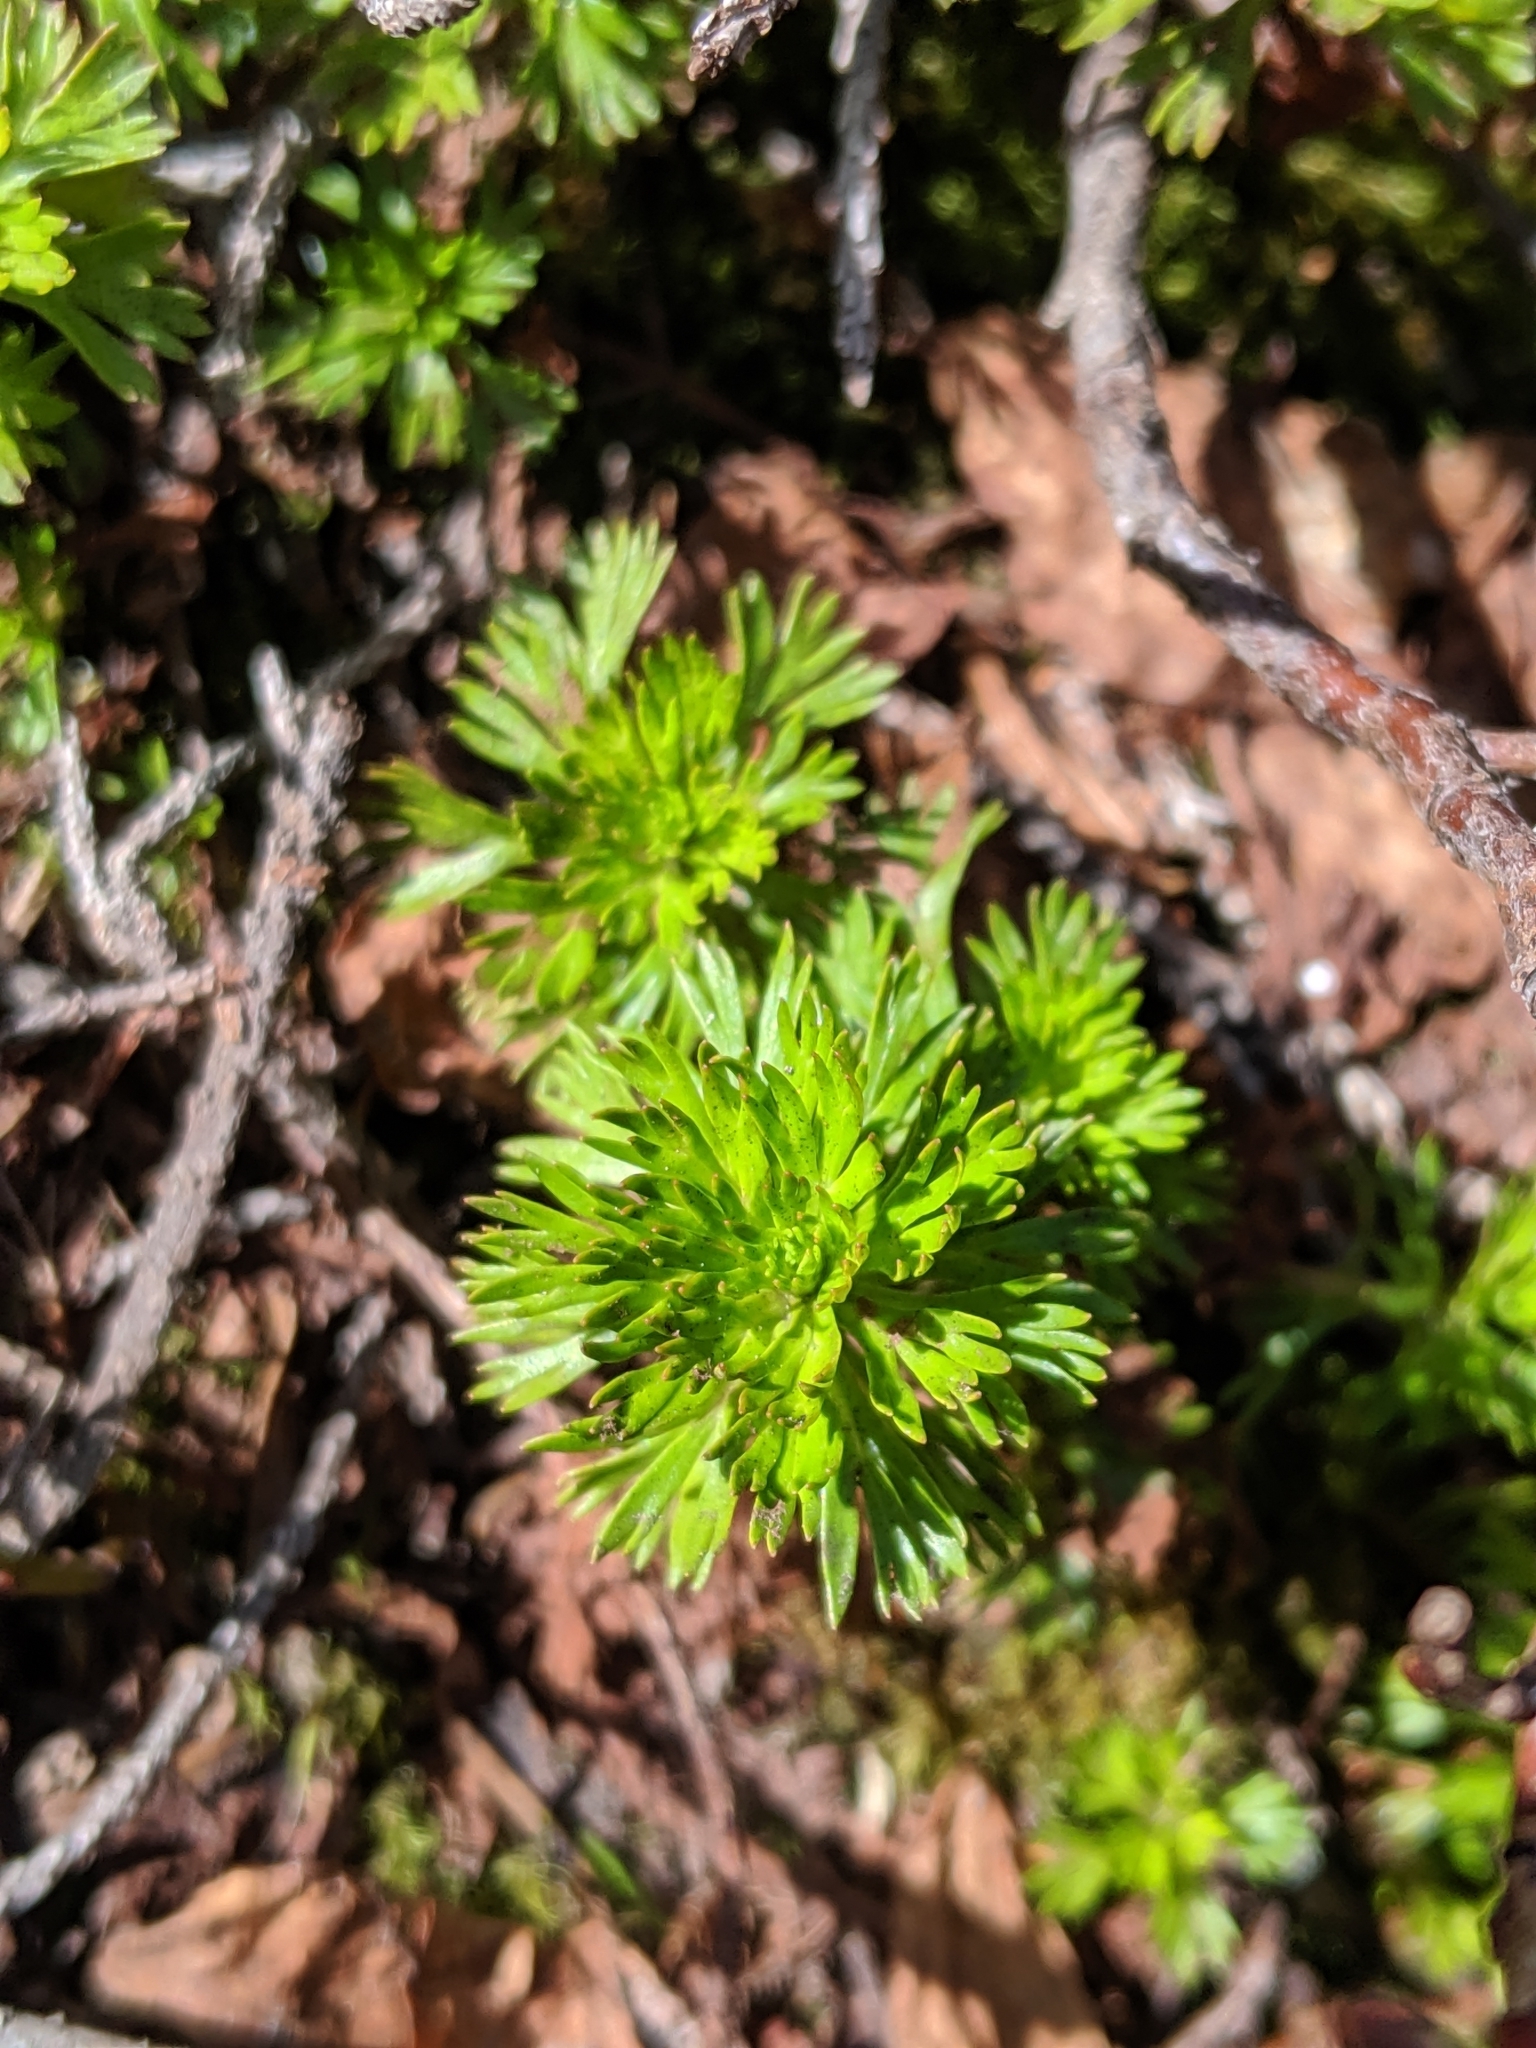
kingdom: Plantae
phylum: Tracheophyta
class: Magnoliopsida
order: Rosales
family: Rosaceae
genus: Luetkea
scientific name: Luetkea pectinata
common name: Partridgefoot
